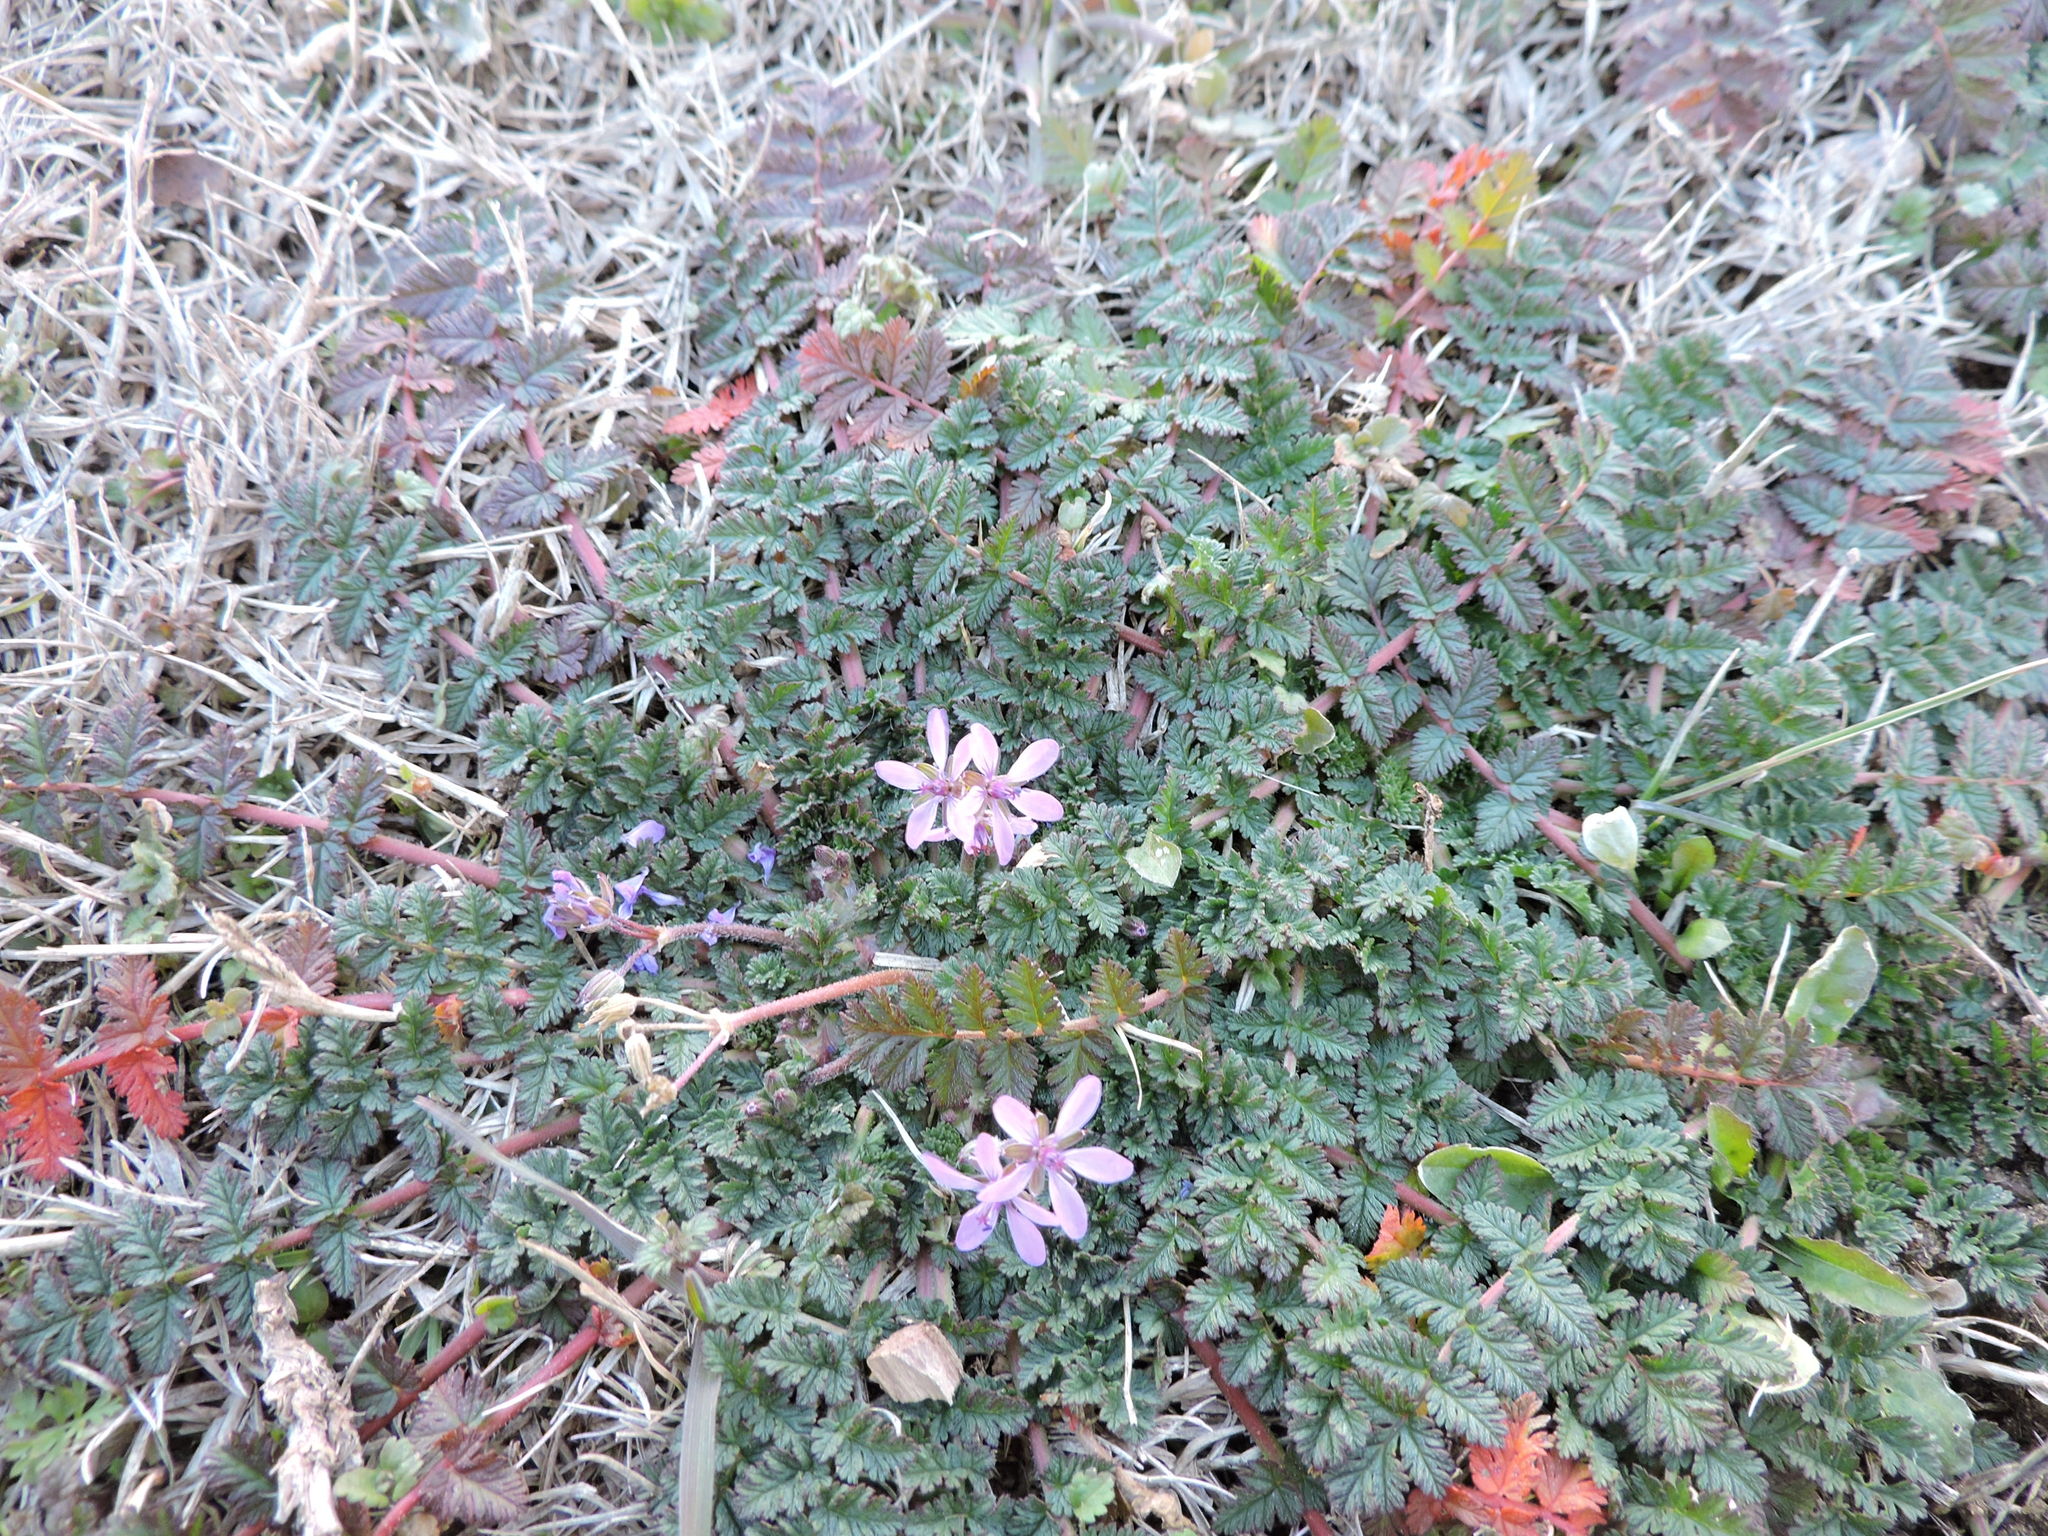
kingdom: Plantae
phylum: Tracheophyta
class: Magnoliopsida
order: Geraniales
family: Geraniaceae
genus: Erodium
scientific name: Erodium cicutarium
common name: Common stork's-bill
